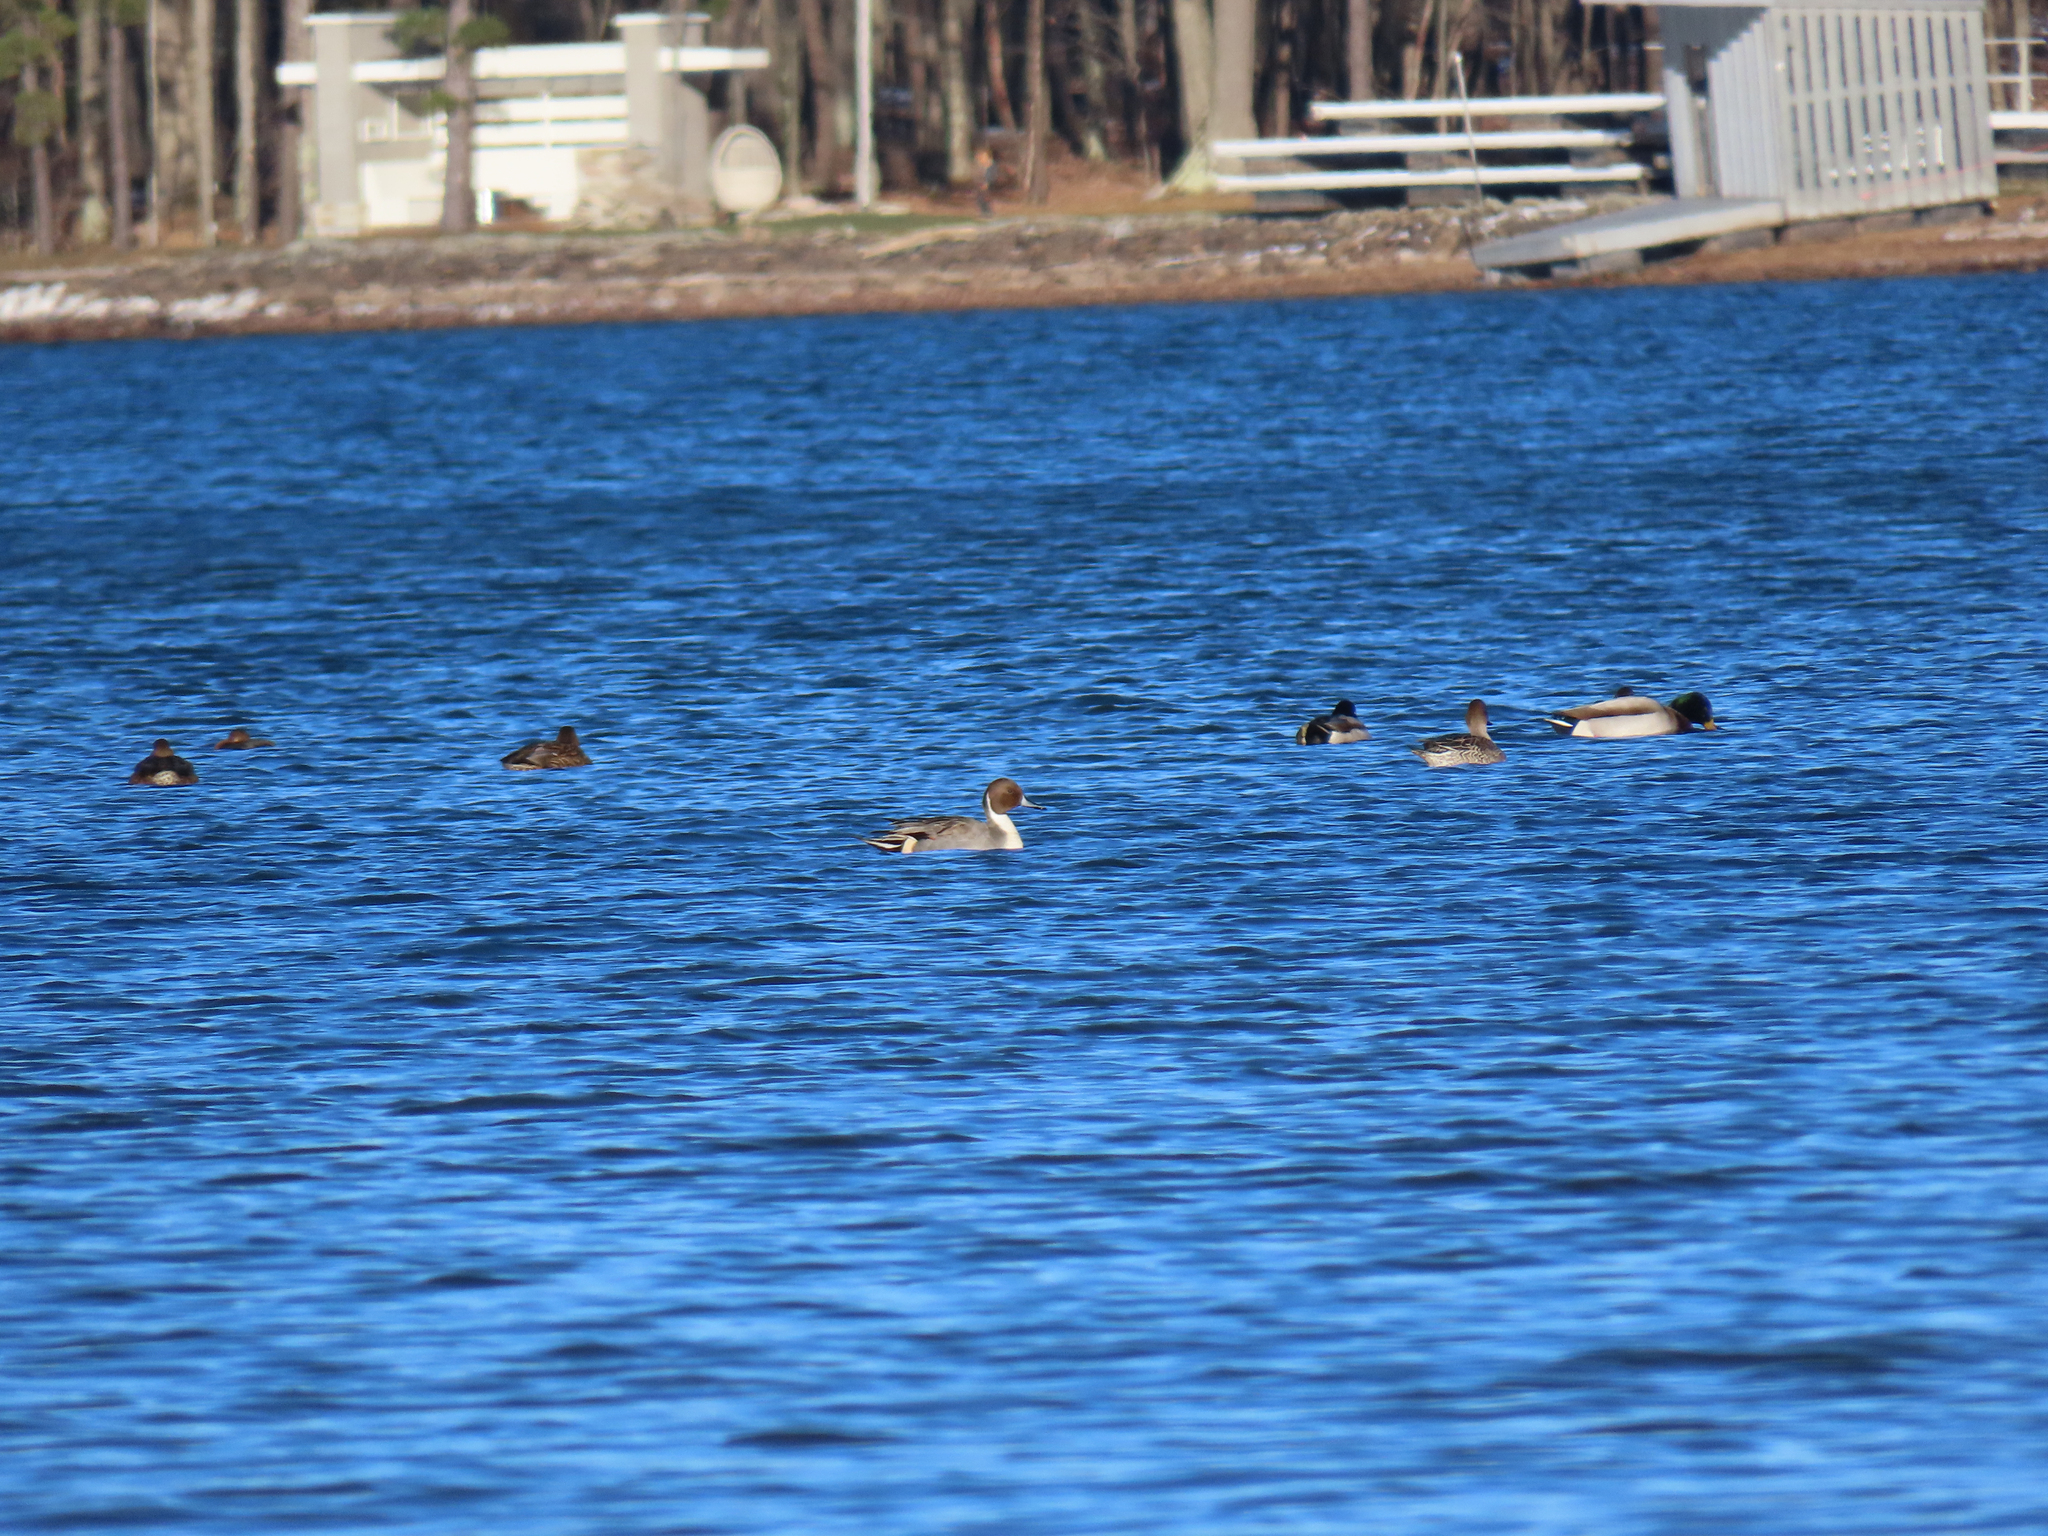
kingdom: Animalia
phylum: Chordata
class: Aves
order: Anseriformes
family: Anatidae
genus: Anas
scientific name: Anas acuta
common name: Northern pintail
